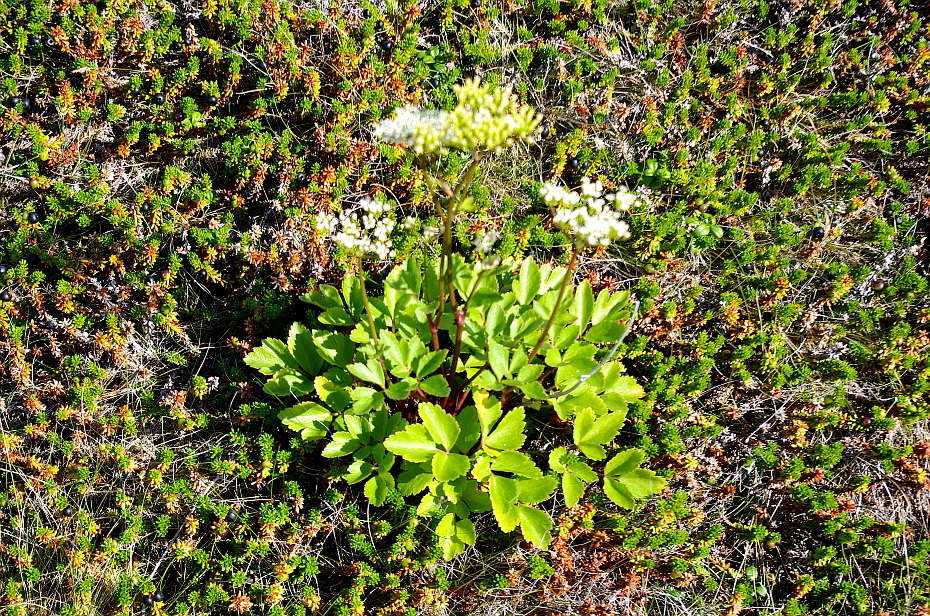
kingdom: Plantae
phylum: Tracheophyta
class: Magnoliopsida
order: Apiales
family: Apiaceae
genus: Ligusticum
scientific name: Ligusticum scothicum
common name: Beach lovage
